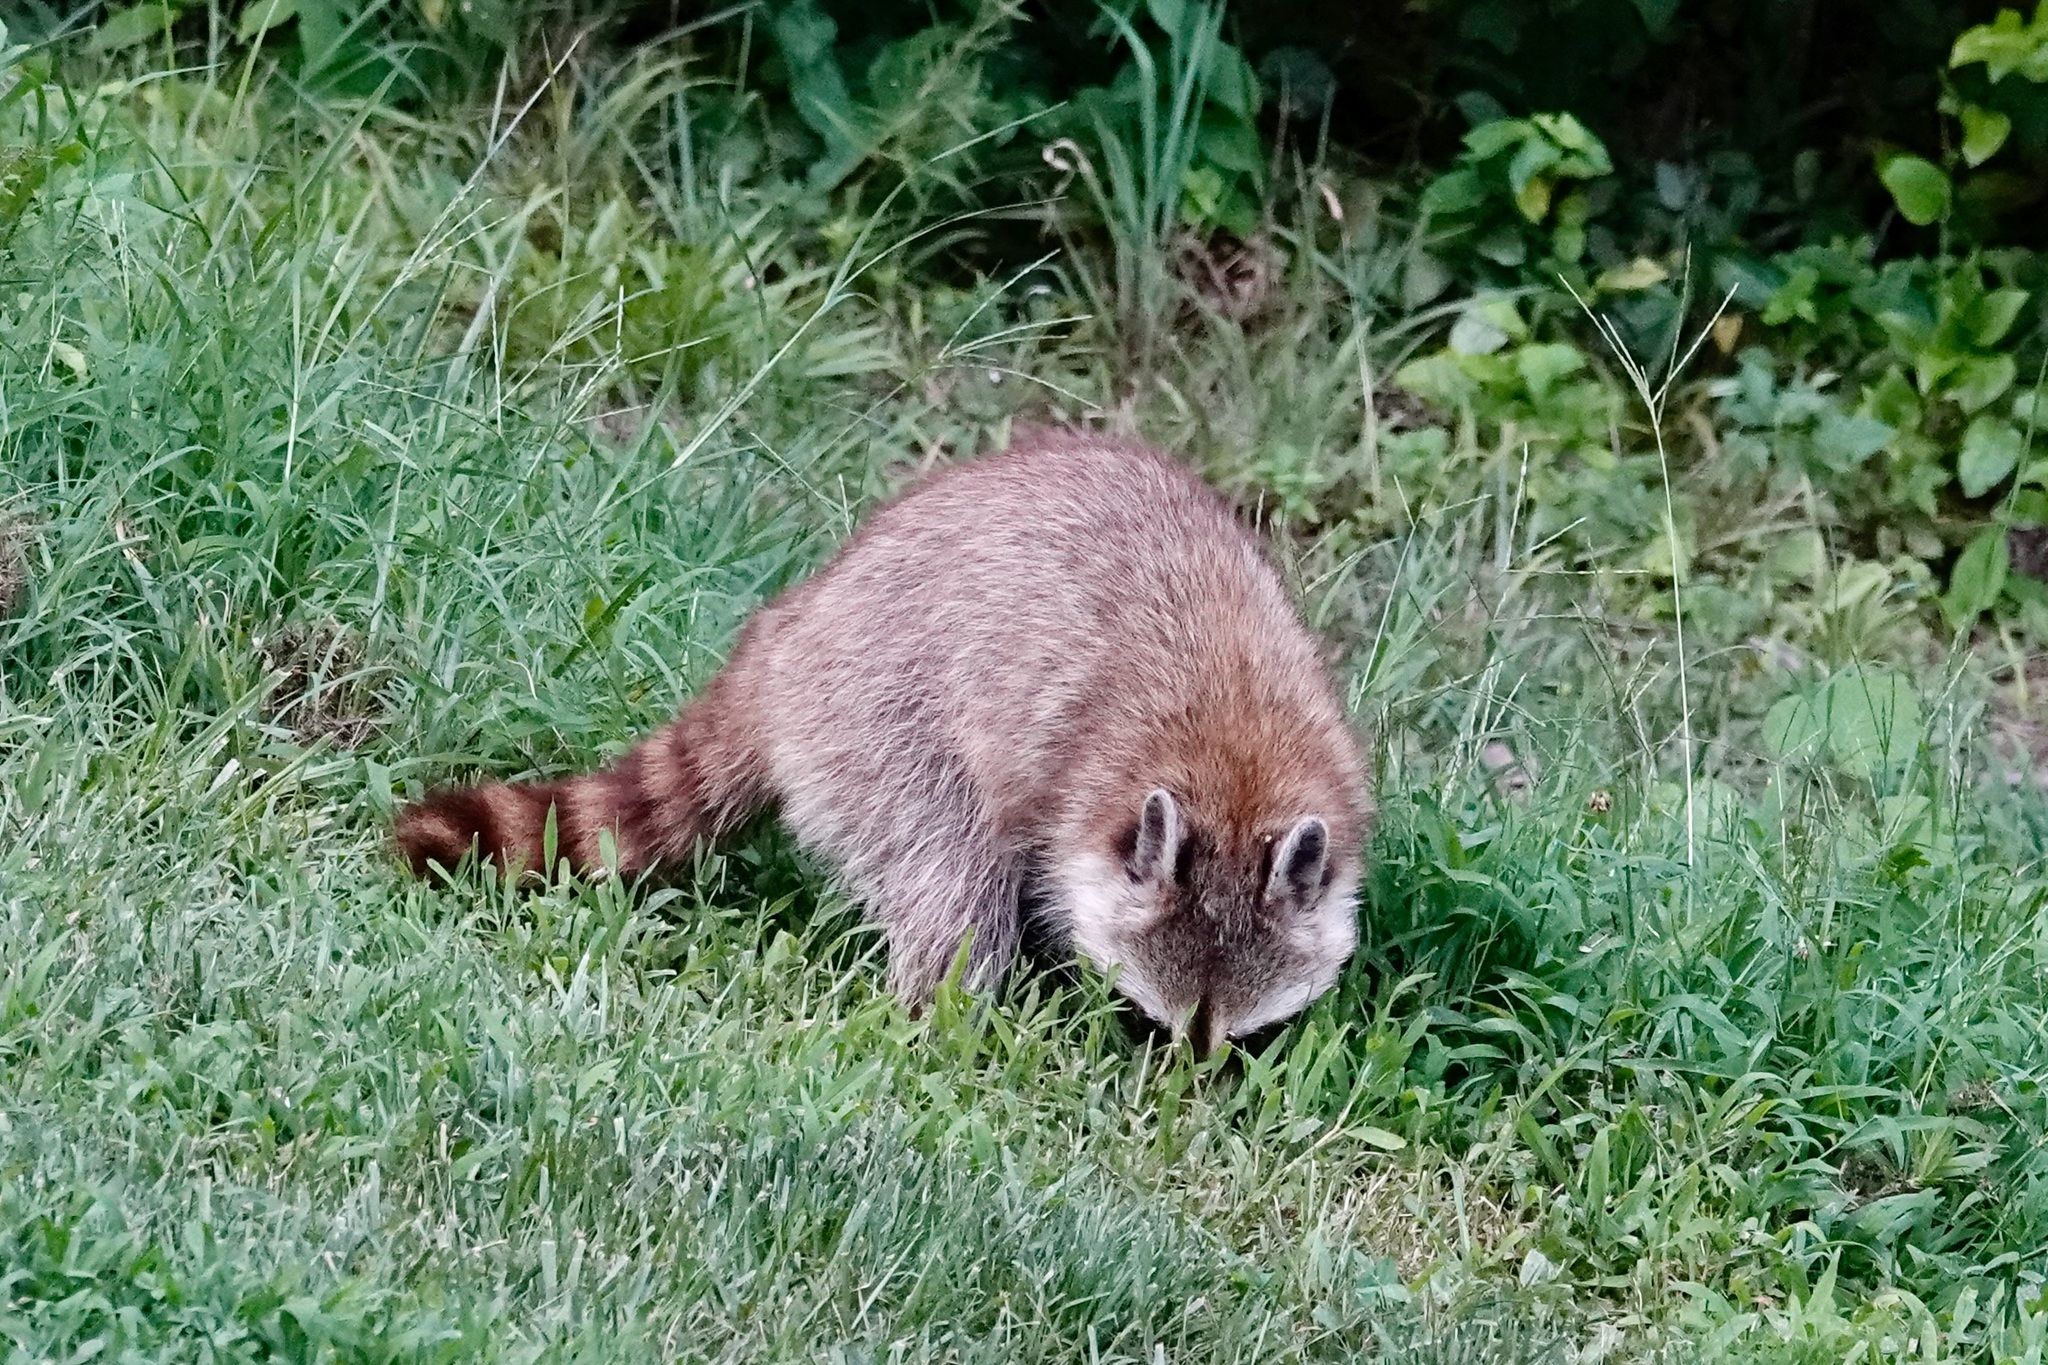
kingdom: Animalia
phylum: Chordata
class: Mammalia
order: Carnivora
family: Procyonidae
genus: Procyon
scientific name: Procyon lotor
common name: Raccoon
